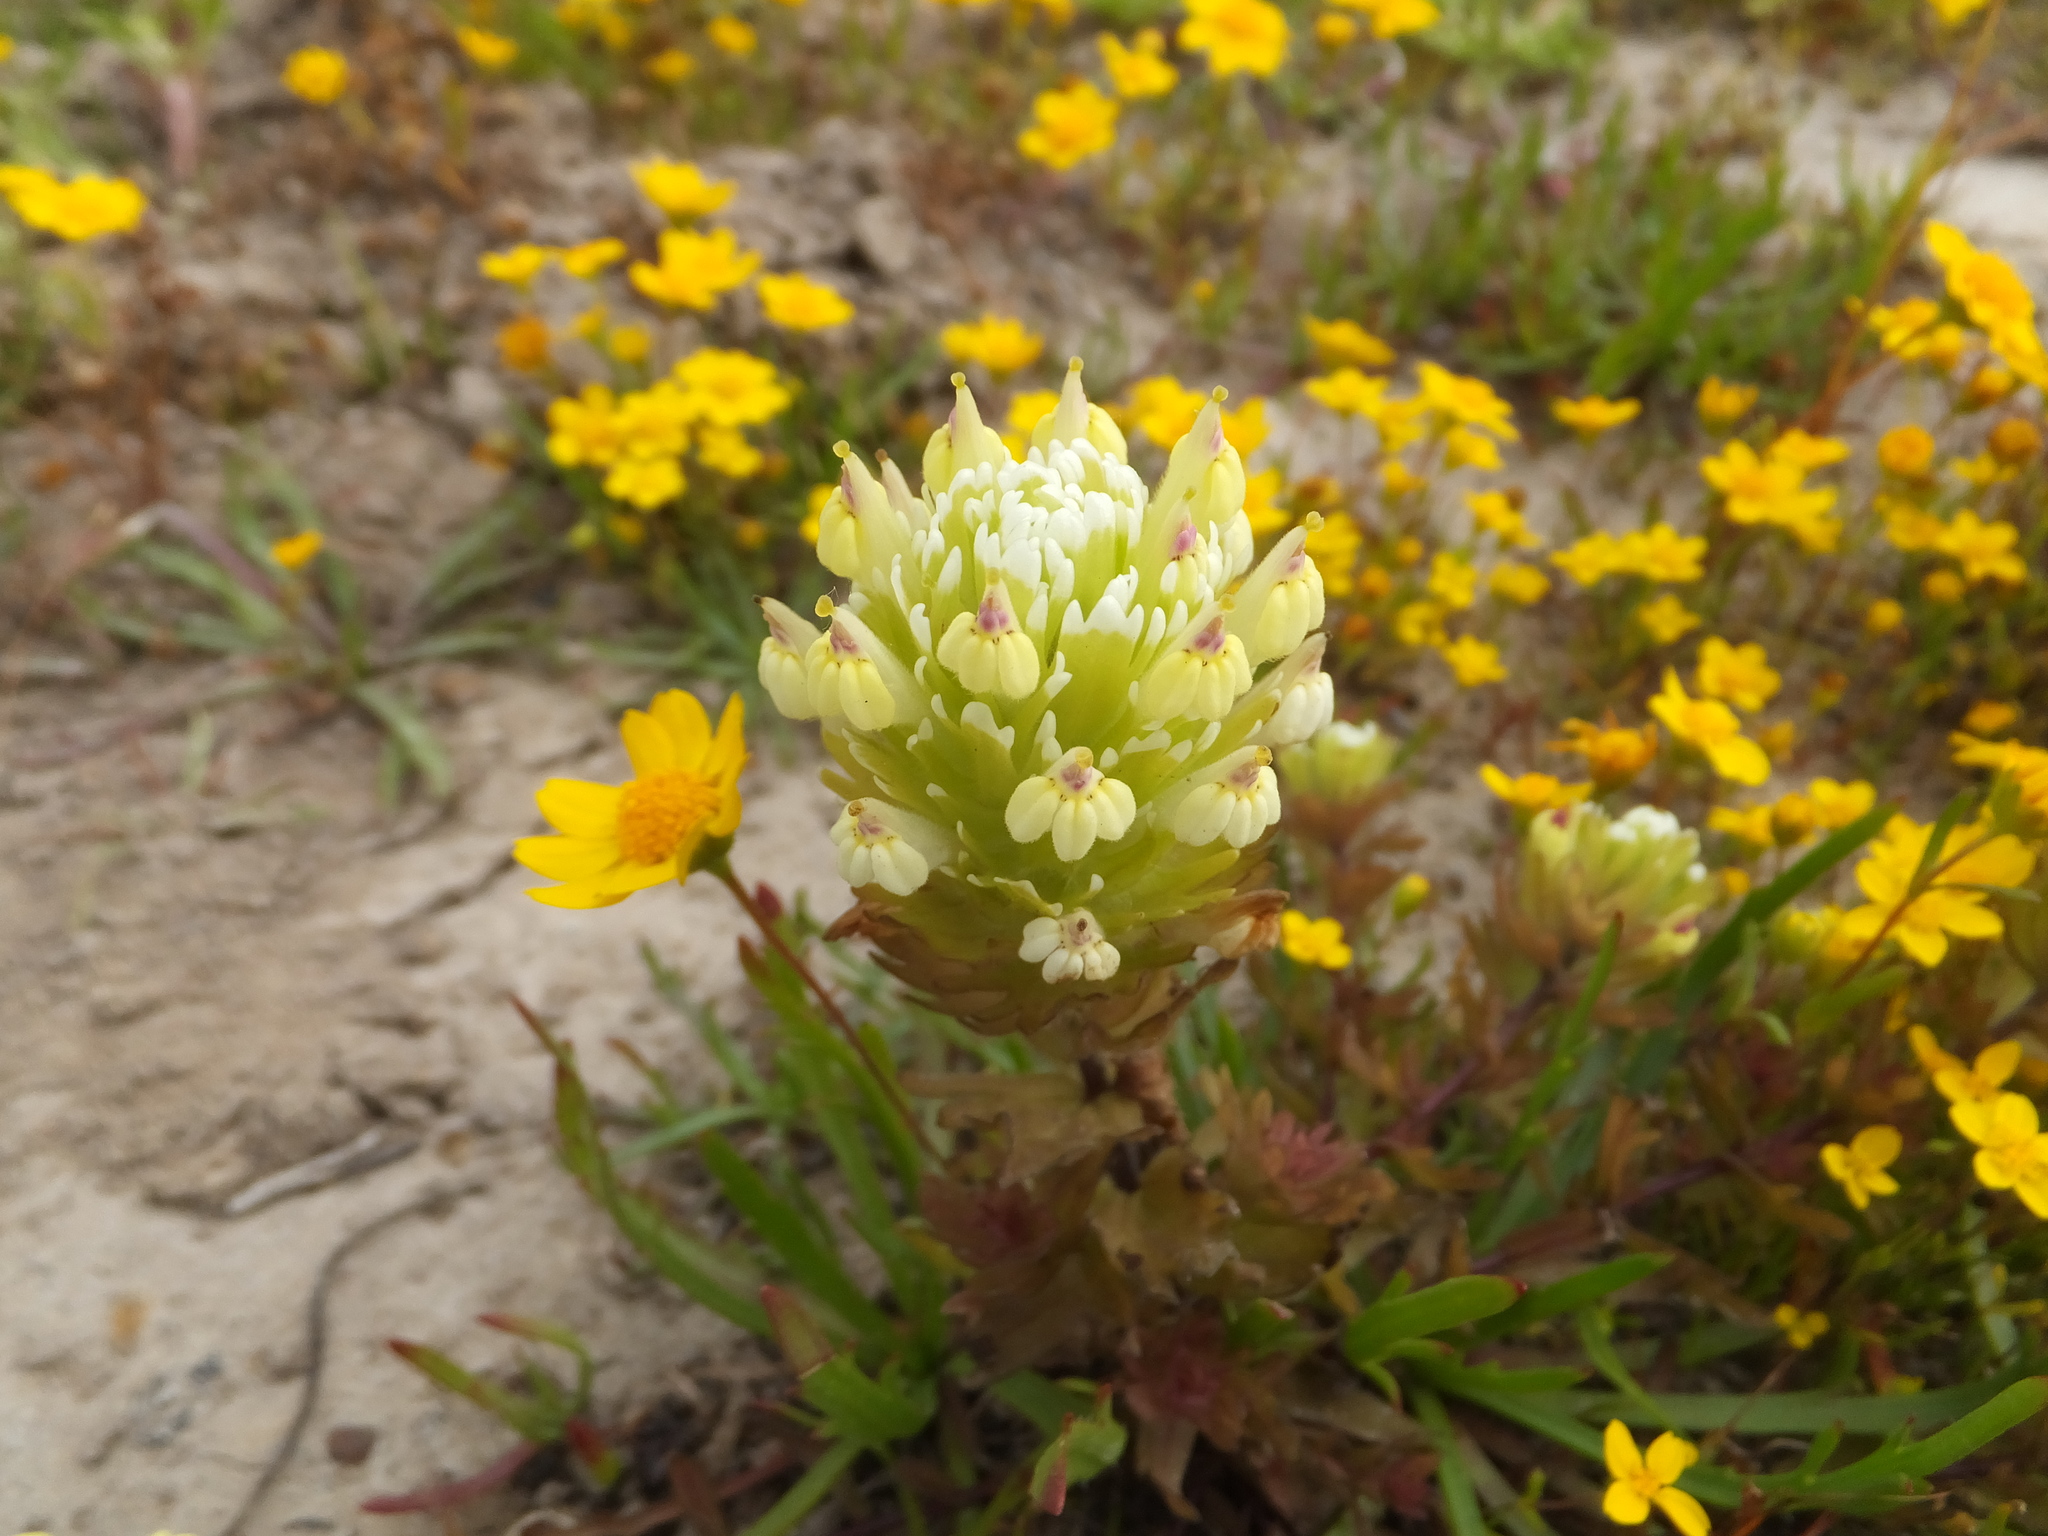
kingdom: Plantae
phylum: Tracheophyta
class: Magnoliopsida
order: Lamiales
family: Orobanchaceae
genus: Castilleja
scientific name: Castilleja ambigua
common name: Johnny-nip
